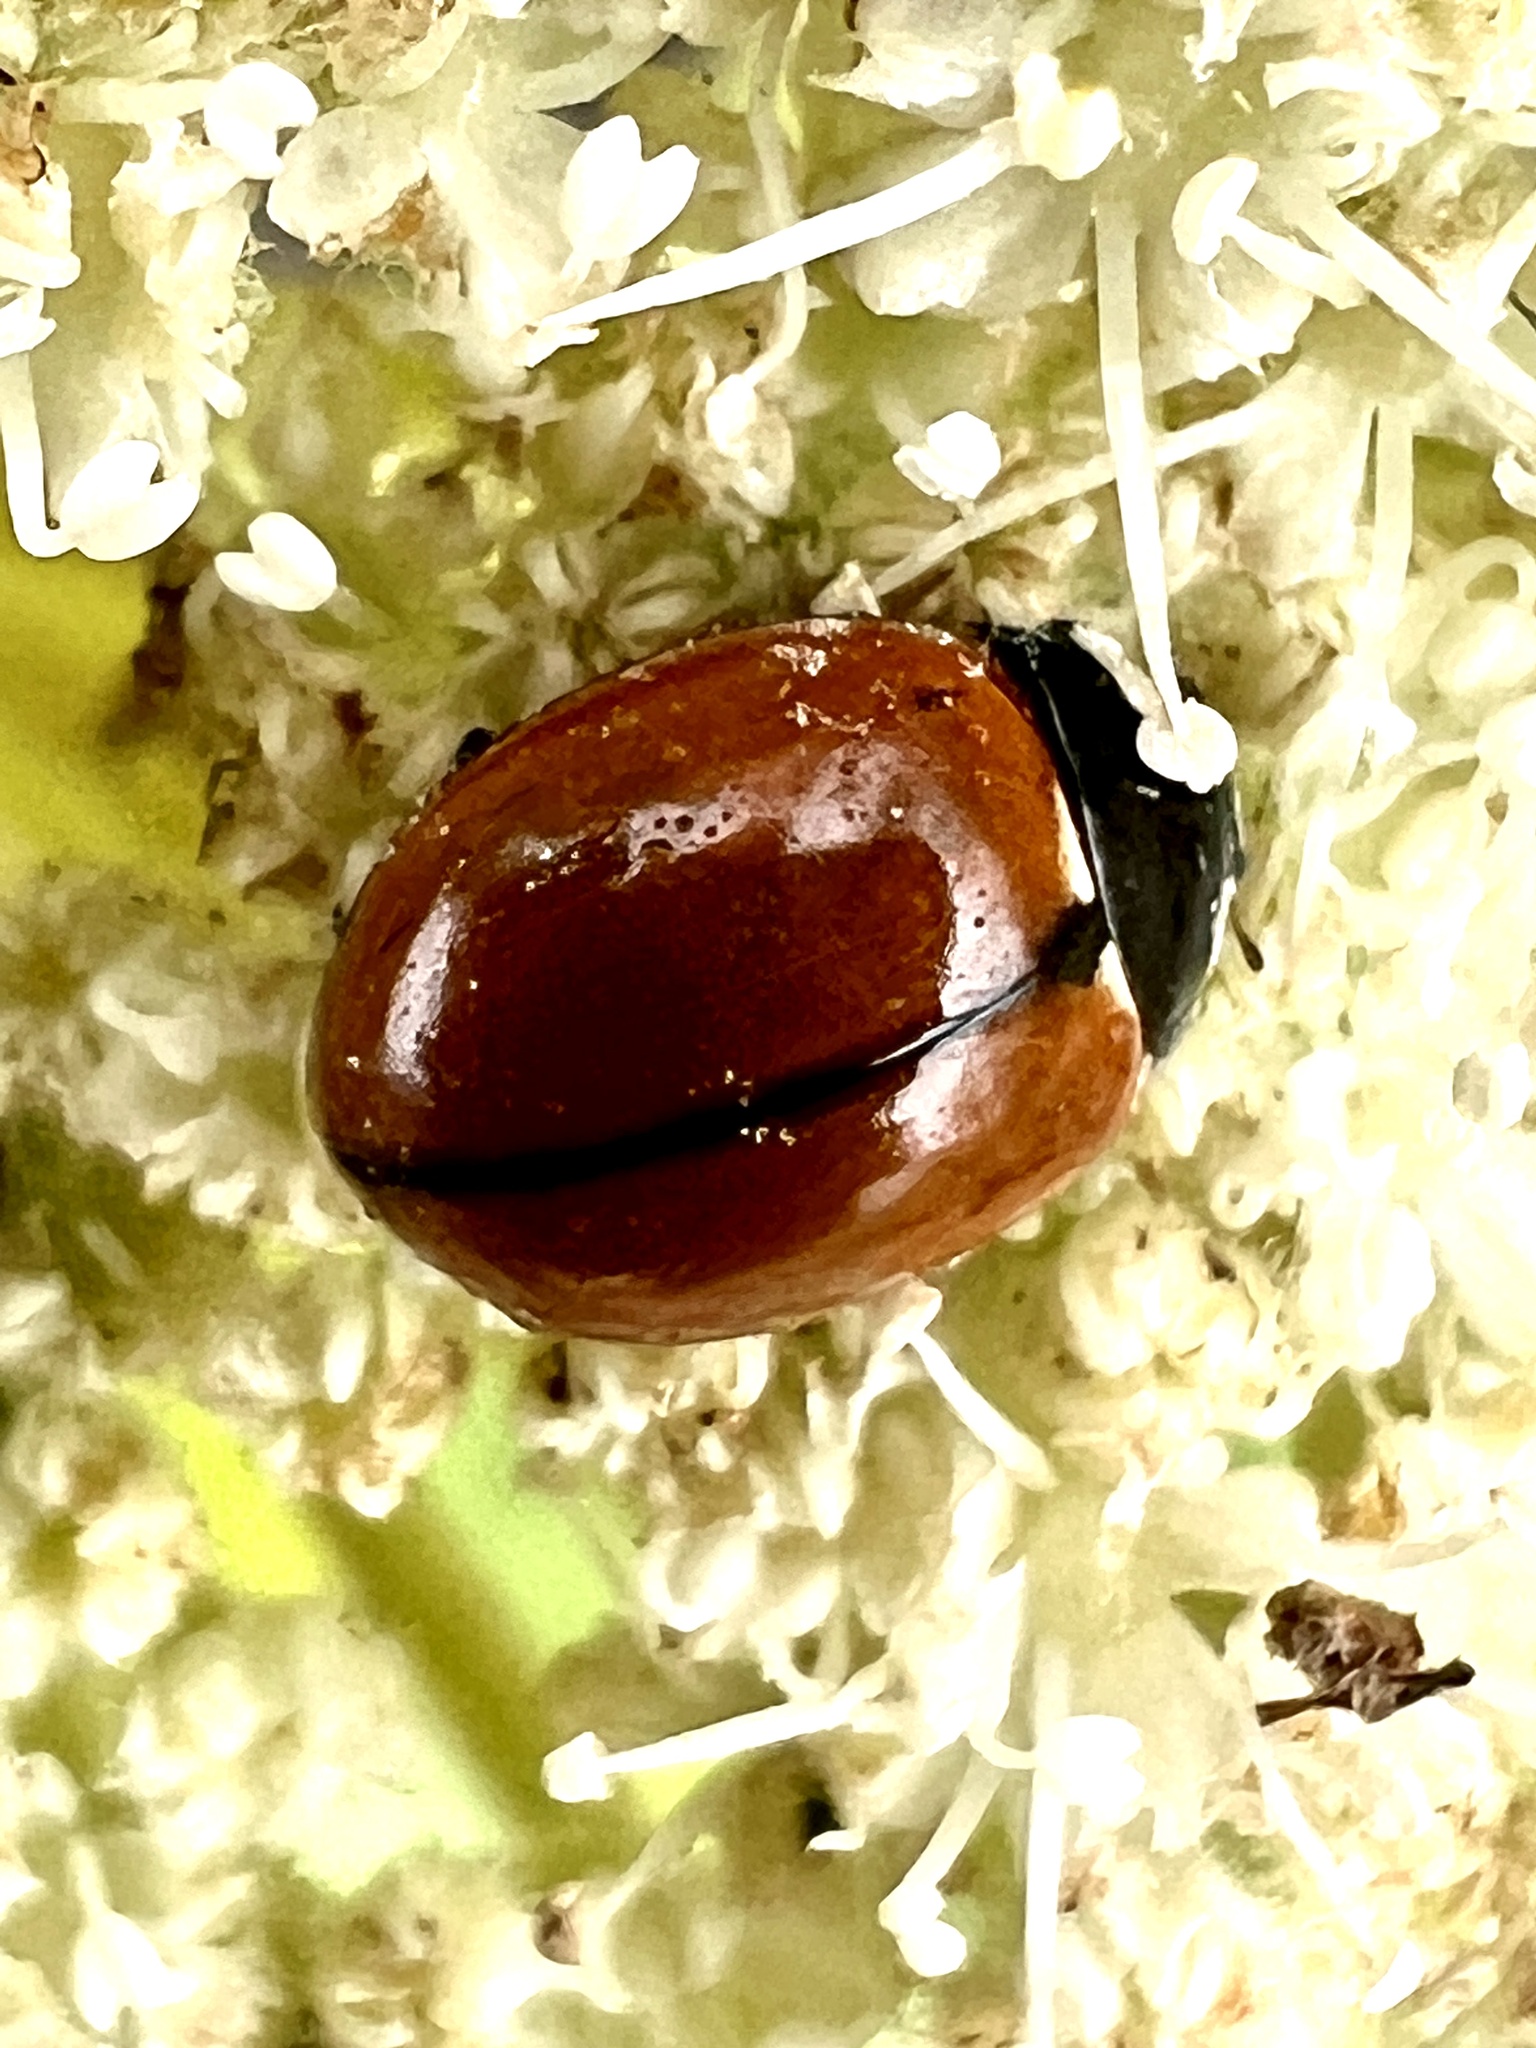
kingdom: Animalia
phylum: Arthropoda
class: Insecta
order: Coleoptera
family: Coccinellidae
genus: Coccinella
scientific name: Coccinella californica
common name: Lady beetle
